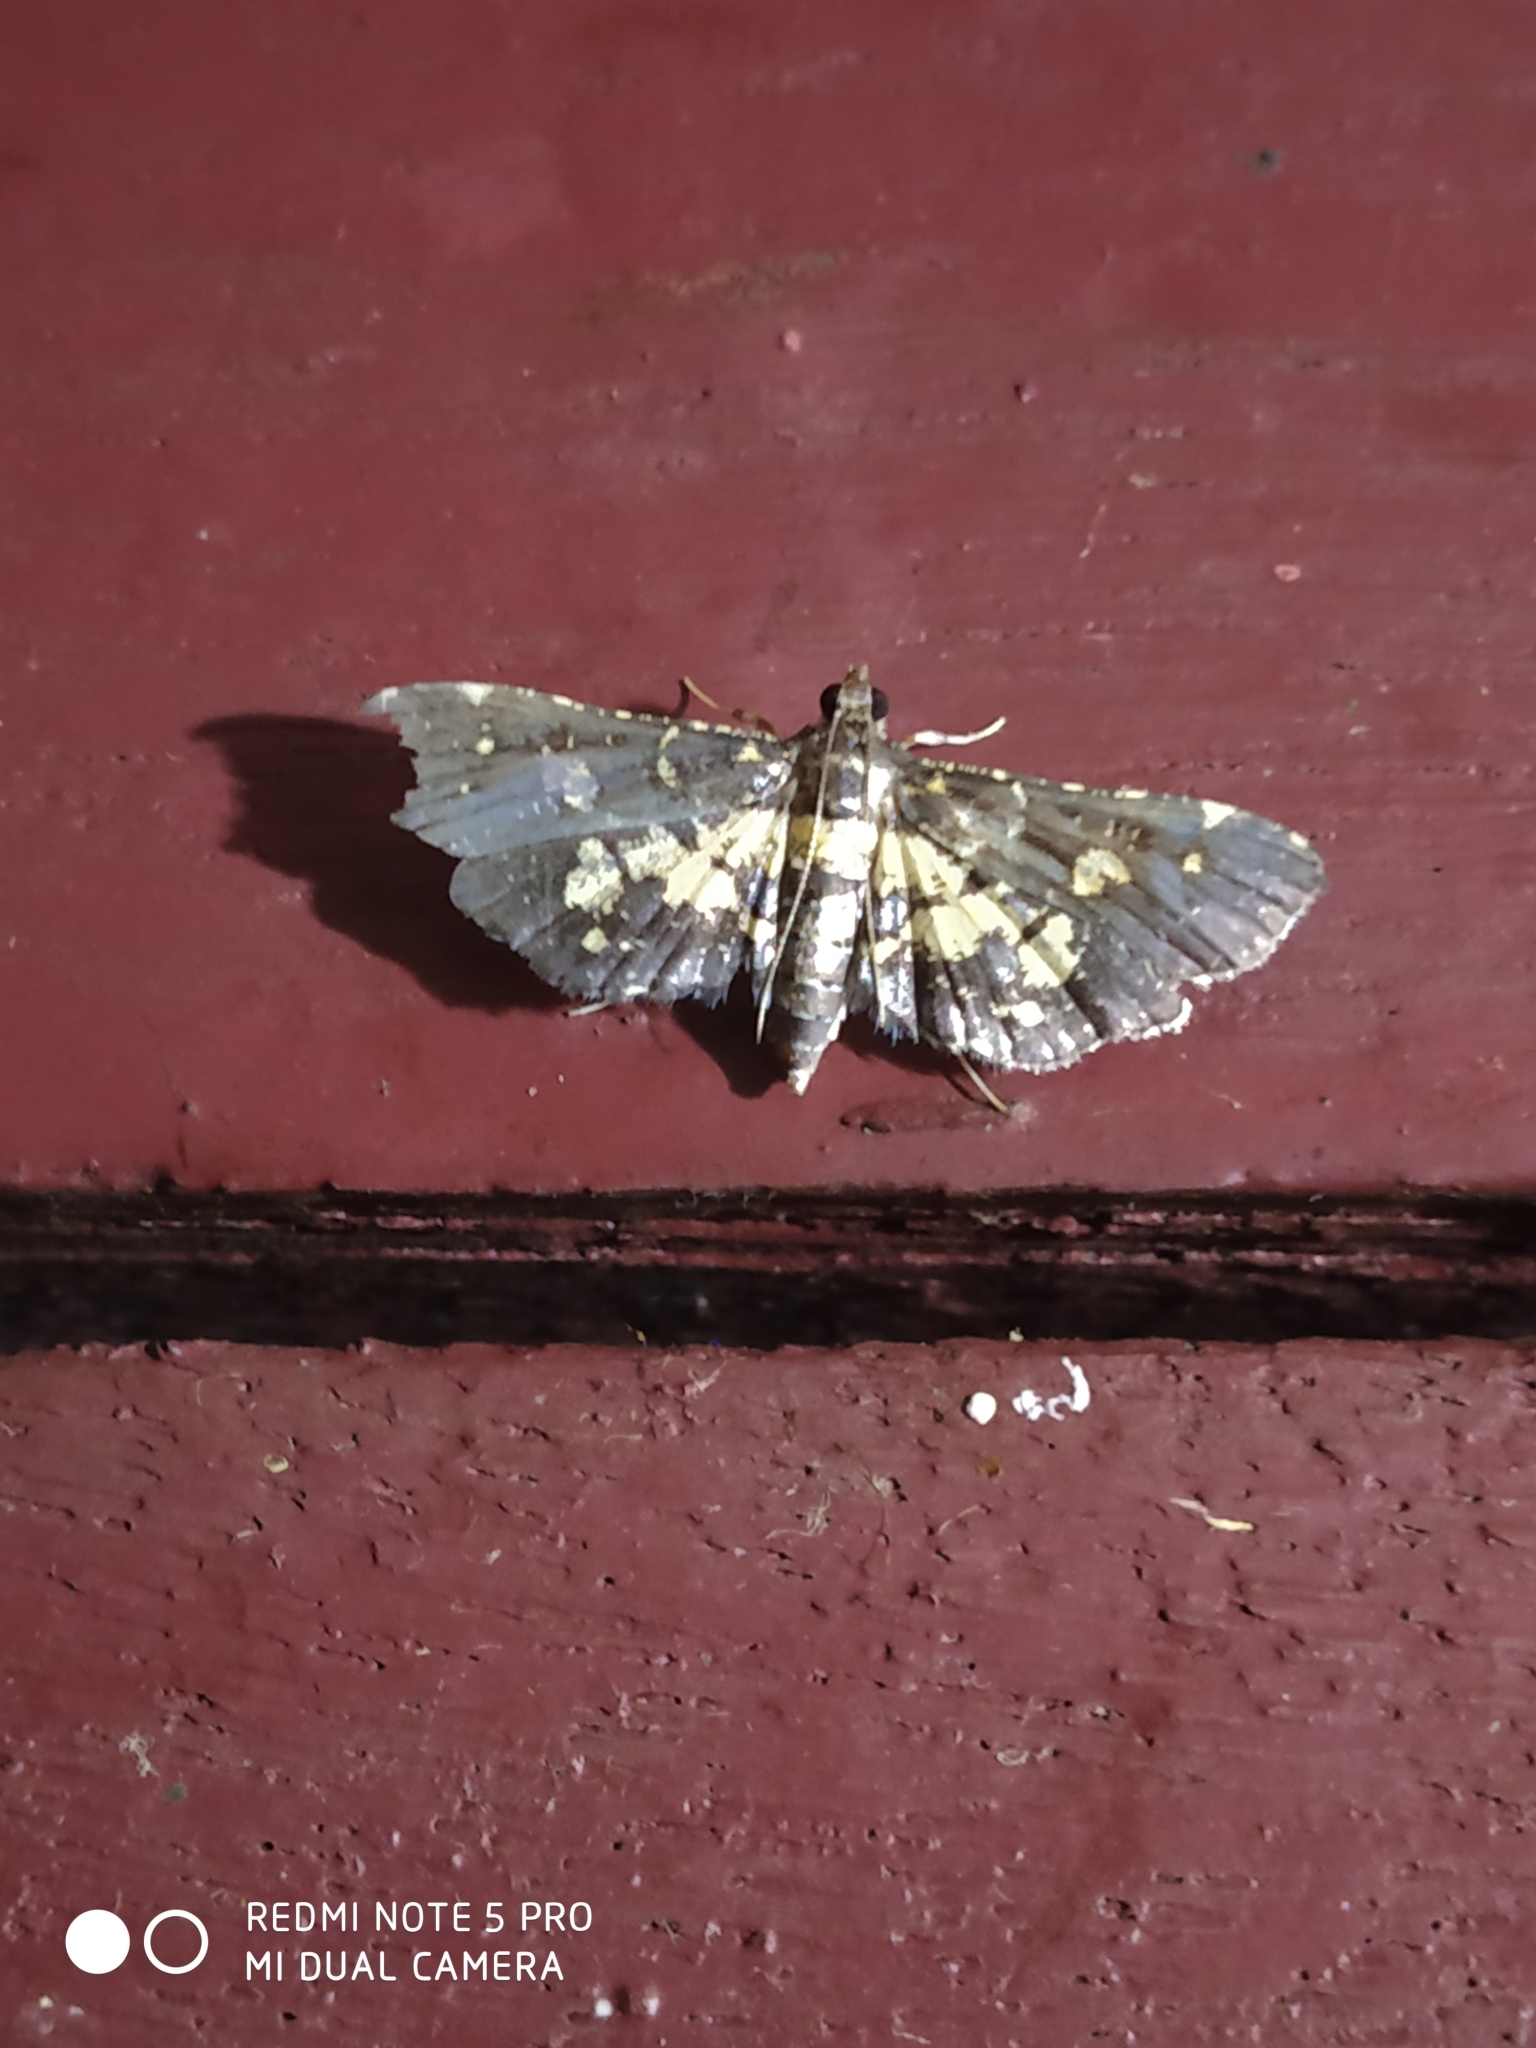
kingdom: Animalia
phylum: Arthropoda
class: Insecta
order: Lepidoptera
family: Crambidae
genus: Eurrhyparodes
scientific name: Eurrhyparodes bracteolalis
